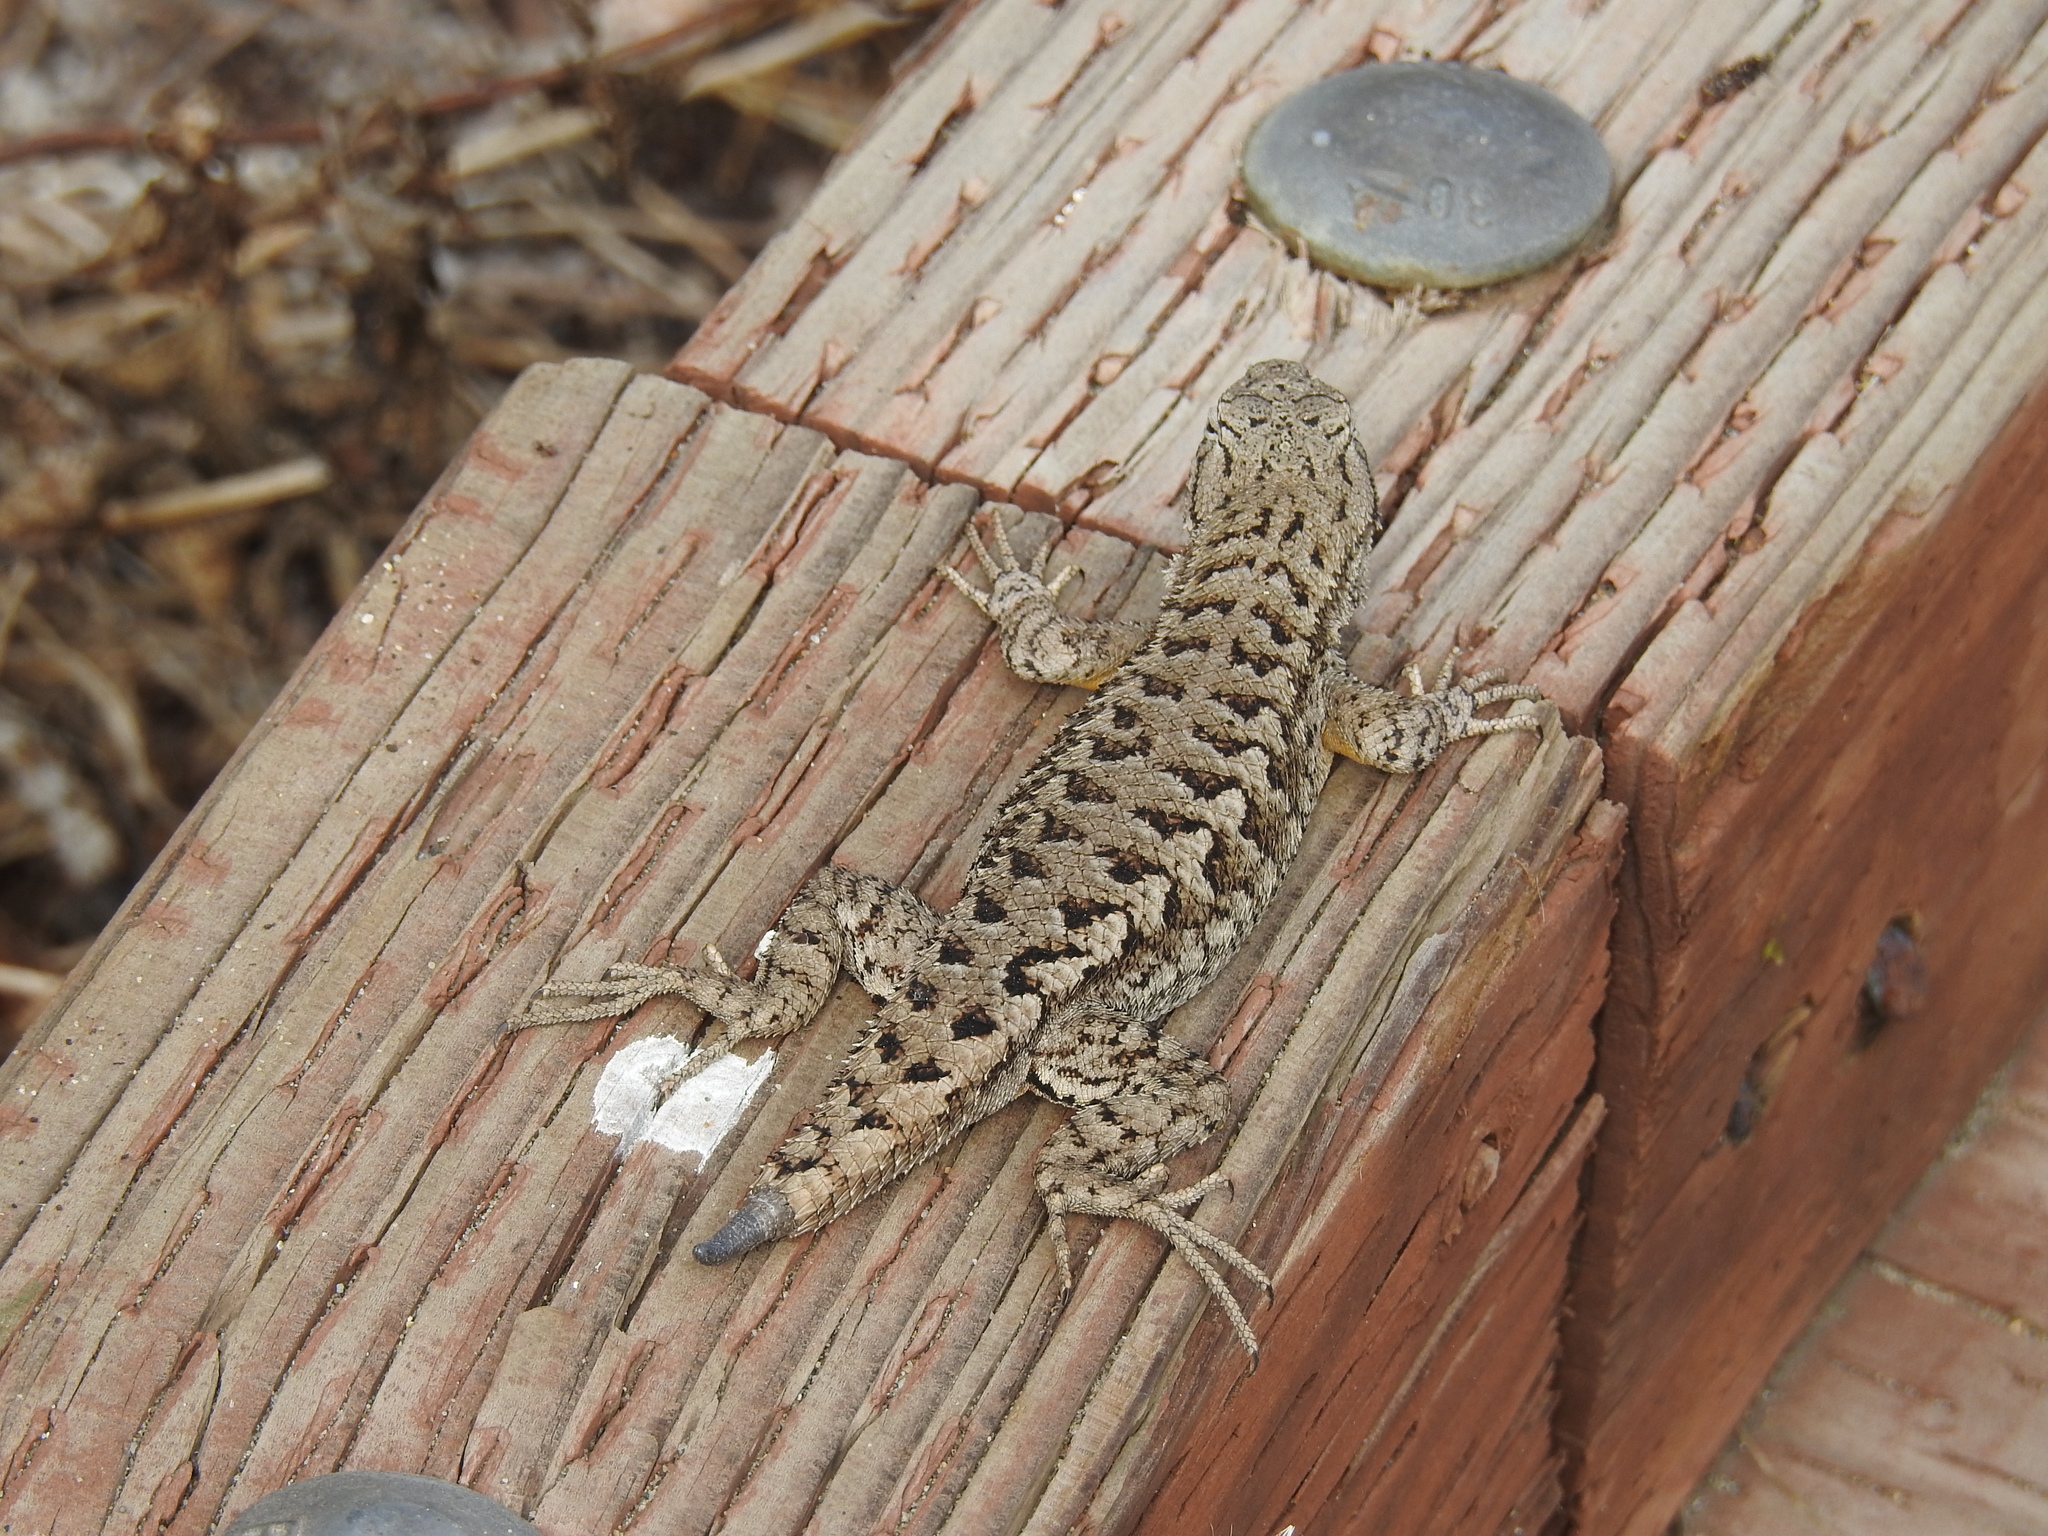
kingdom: Animalia
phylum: Chordata
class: Squamata
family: Phrynosomatidae
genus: Sceloporus
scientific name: Sceloporus occidentalis
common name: Western fence lizard
